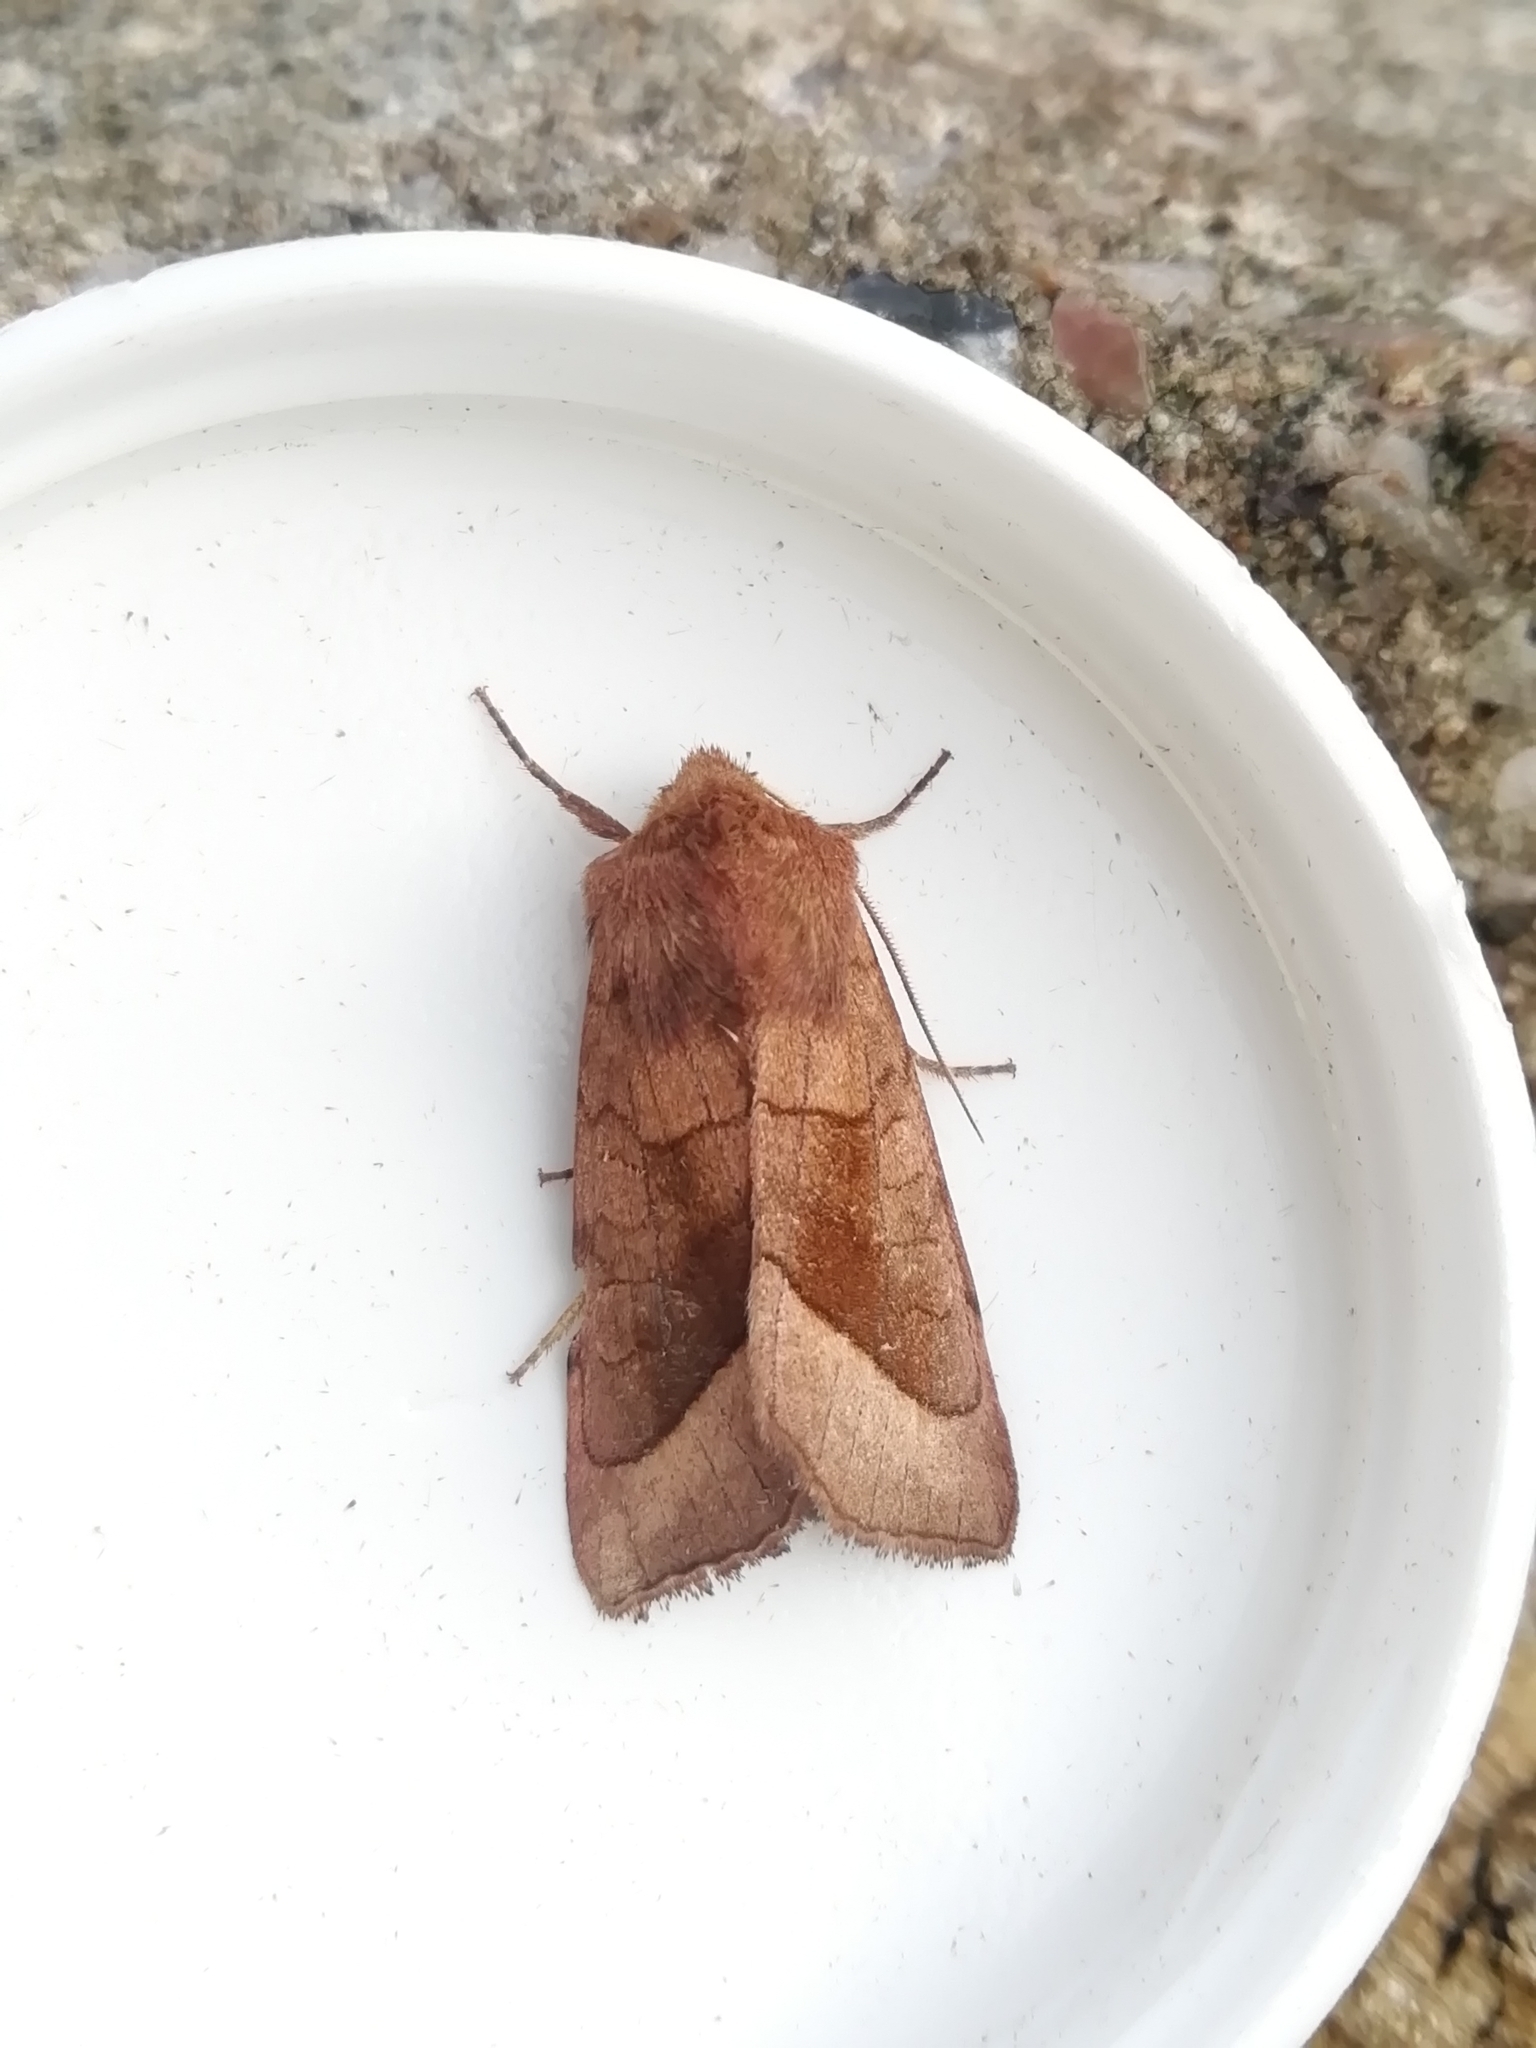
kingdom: Animalia
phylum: Arthropoda
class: Insecta
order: Lepidoptera
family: Noctuidae
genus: Hydraecia
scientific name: Hydraecia micacea
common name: Rosy rustic
